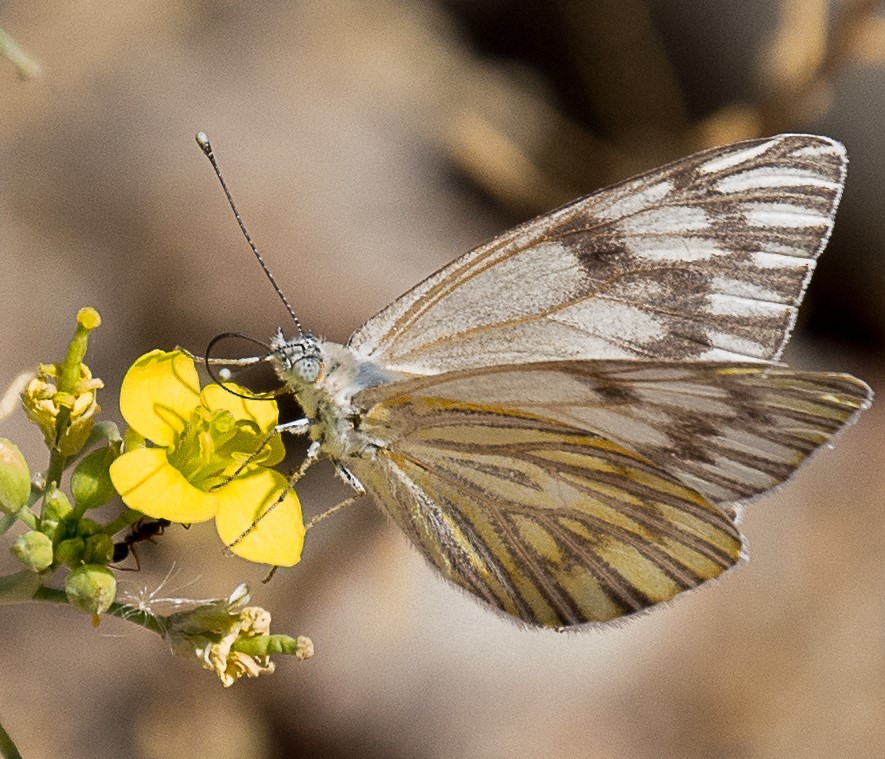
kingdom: Animalia
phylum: Arthropoda
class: Insecta
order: Lepidoptera
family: Pieridae
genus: Tatochila
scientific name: Tatochila mercedis
